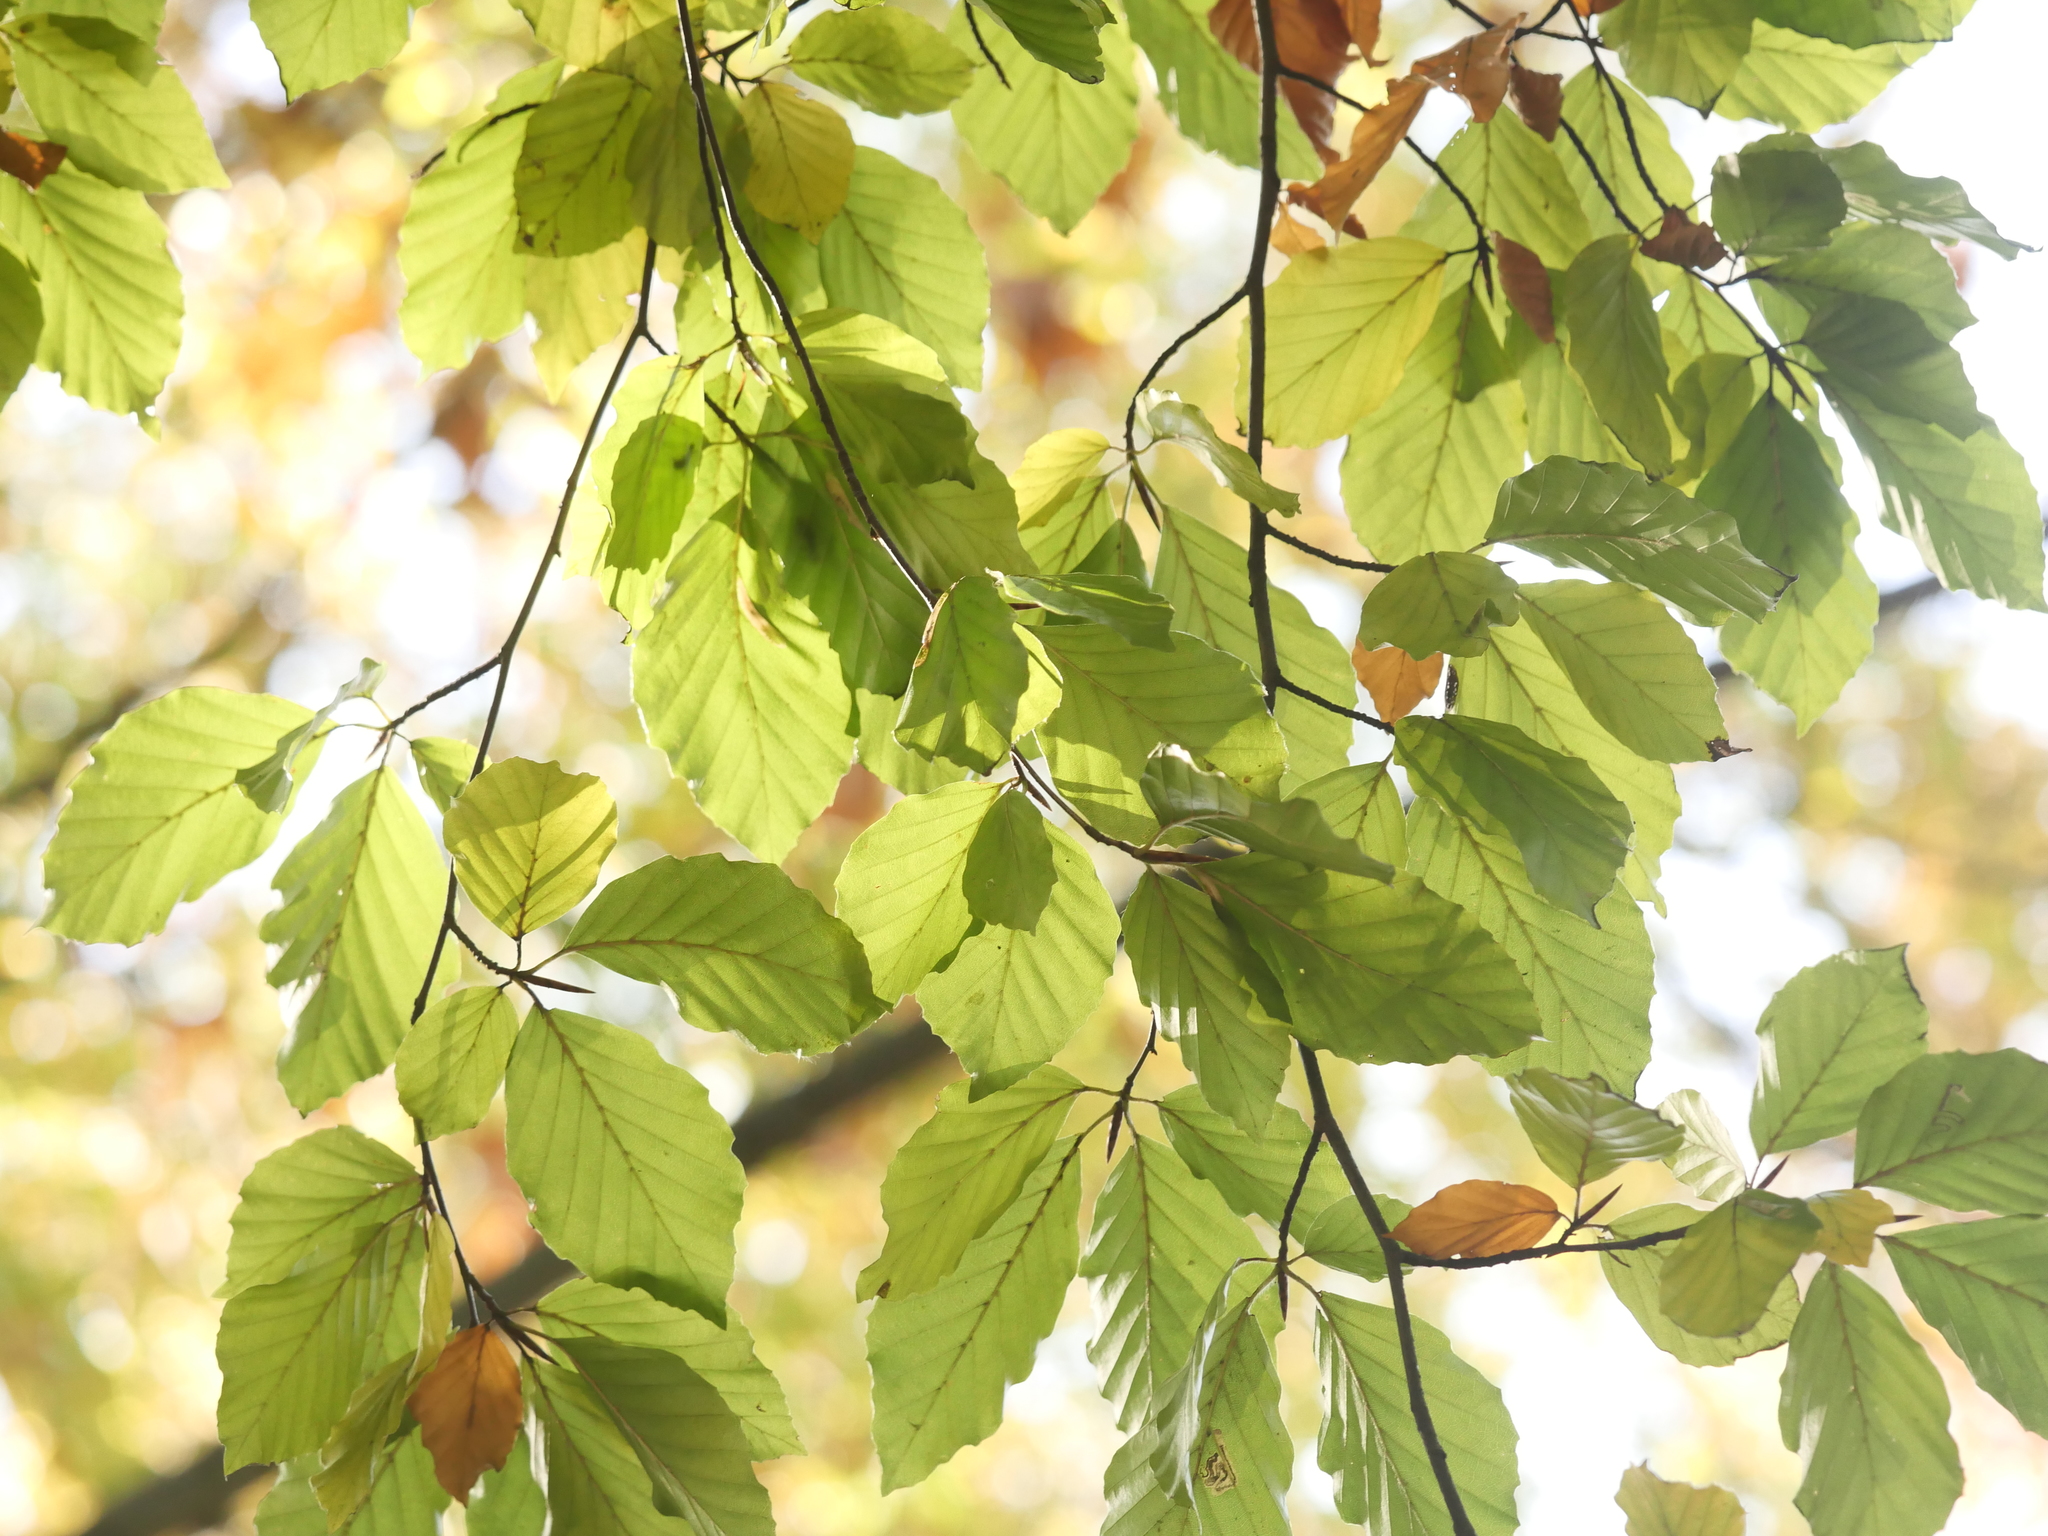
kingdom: Plantae
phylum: Tracheophyta
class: Magnoliopsida
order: Fagales
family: Fagaceae
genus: Fagus
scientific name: Fagus sylvatica
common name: Beech
